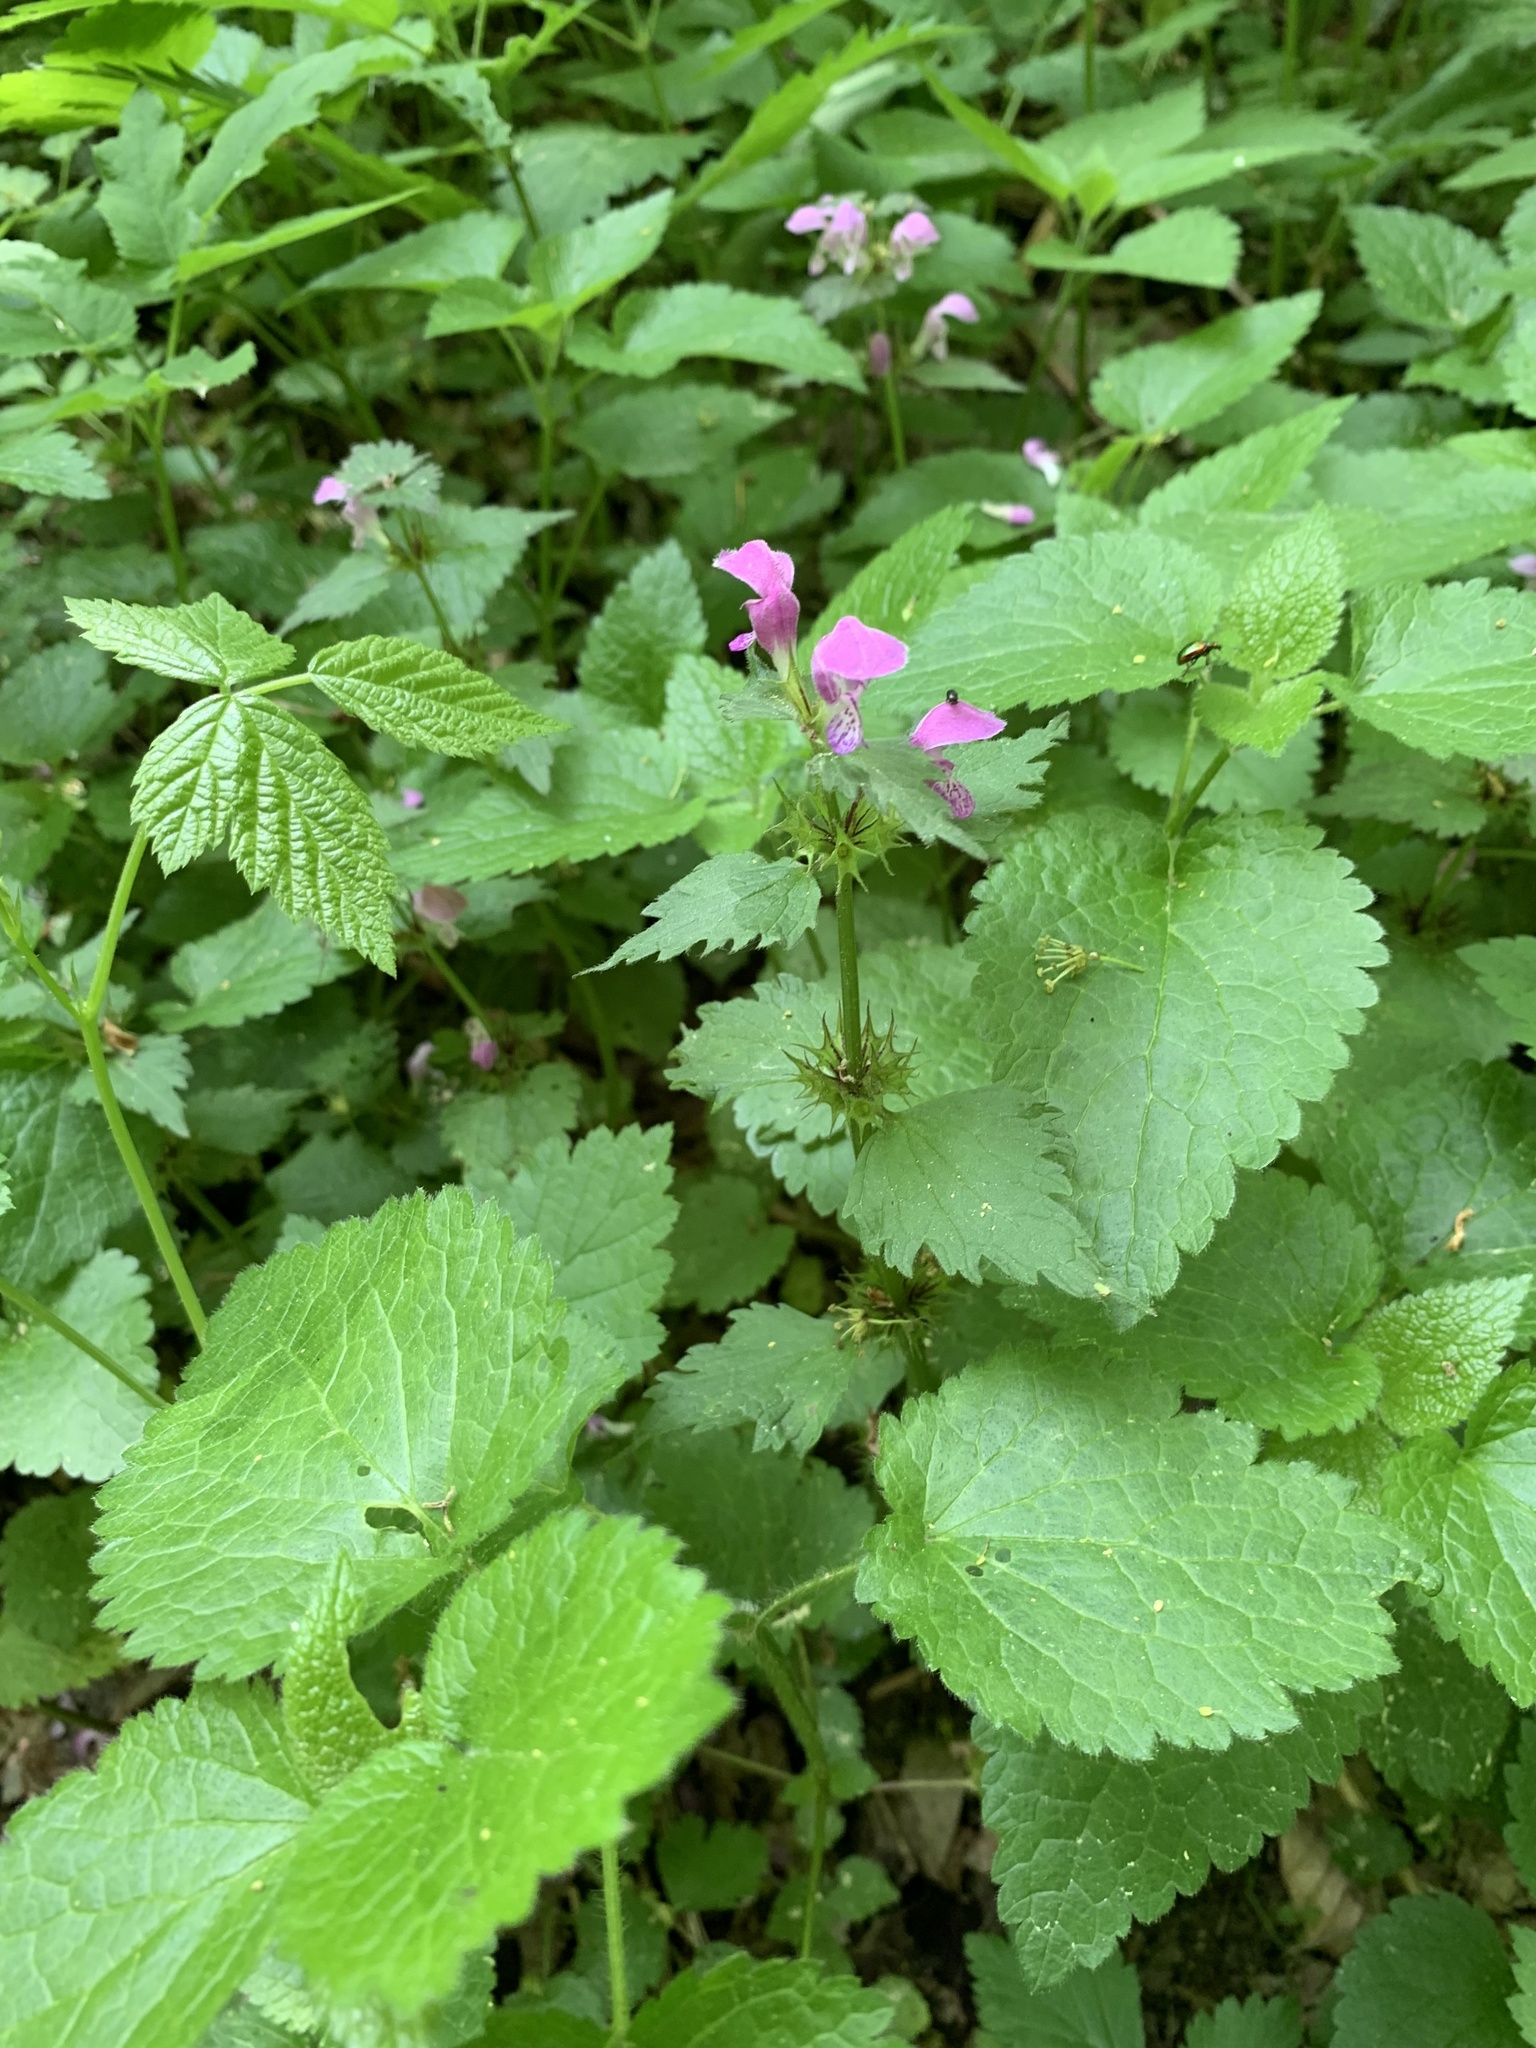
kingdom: Plantae
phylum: Tracheophyta
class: Magnoliopsida
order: Lamiales
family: Lamiaceae
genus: Lamium
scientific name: Lamium maculatum
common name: Spotted dead-nettle
